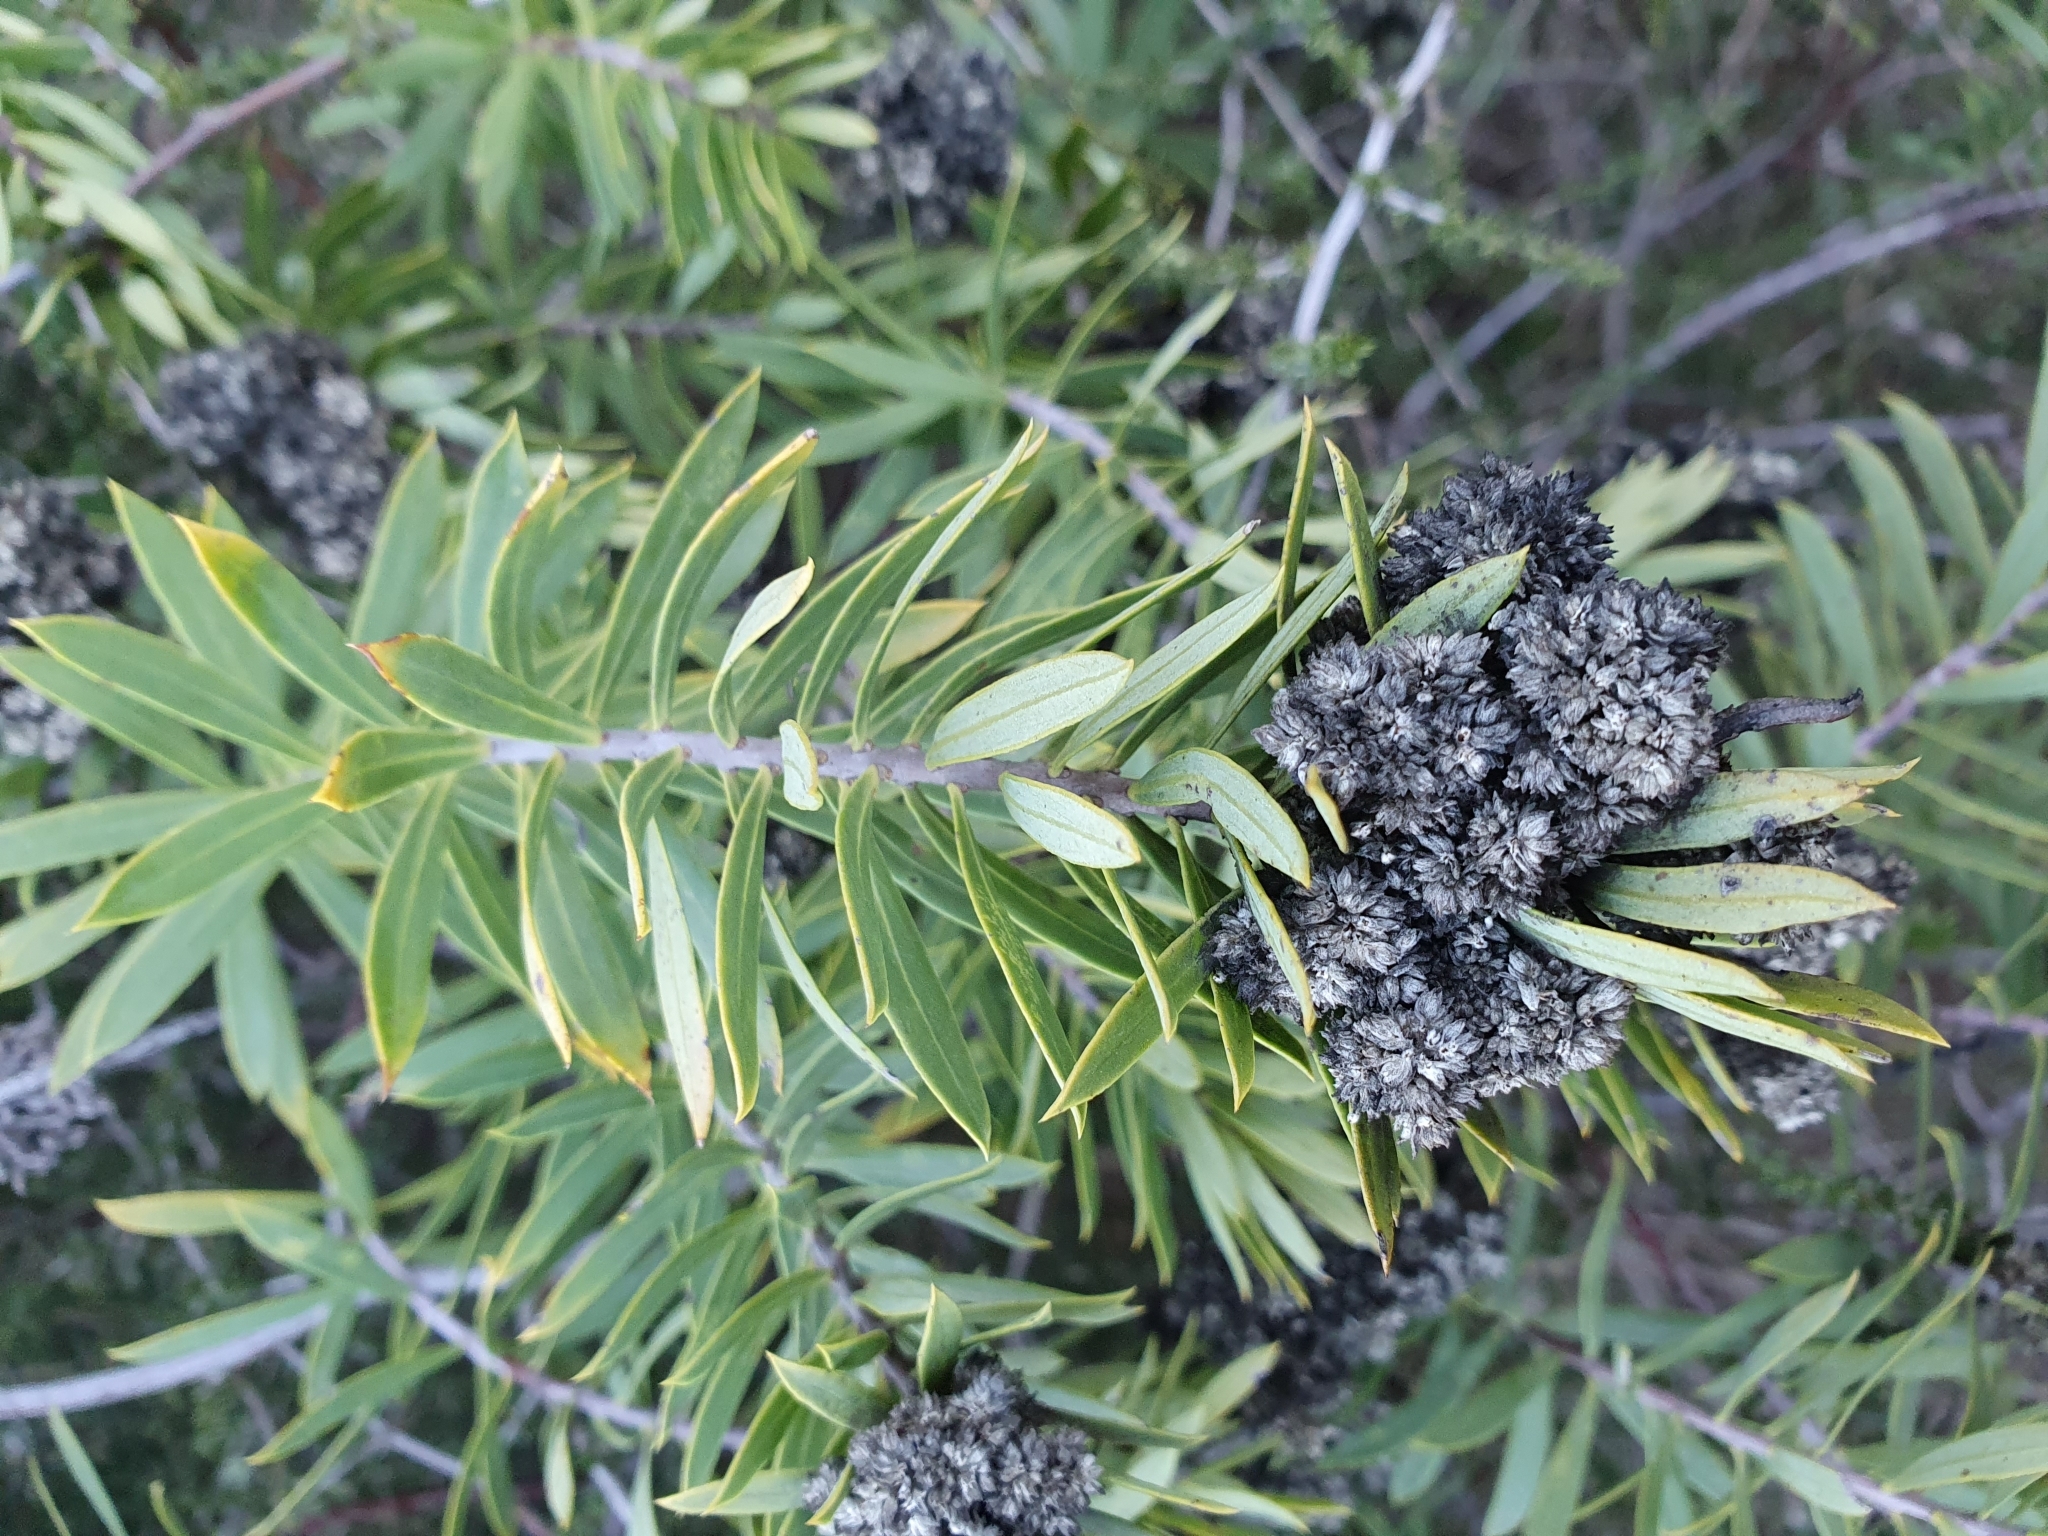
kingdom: Plantae
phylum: Tracheophyta
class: Magnoliopsida
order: Malvales
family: Thymelaeaceae
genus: Daphne
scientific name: Daphne gnidium
